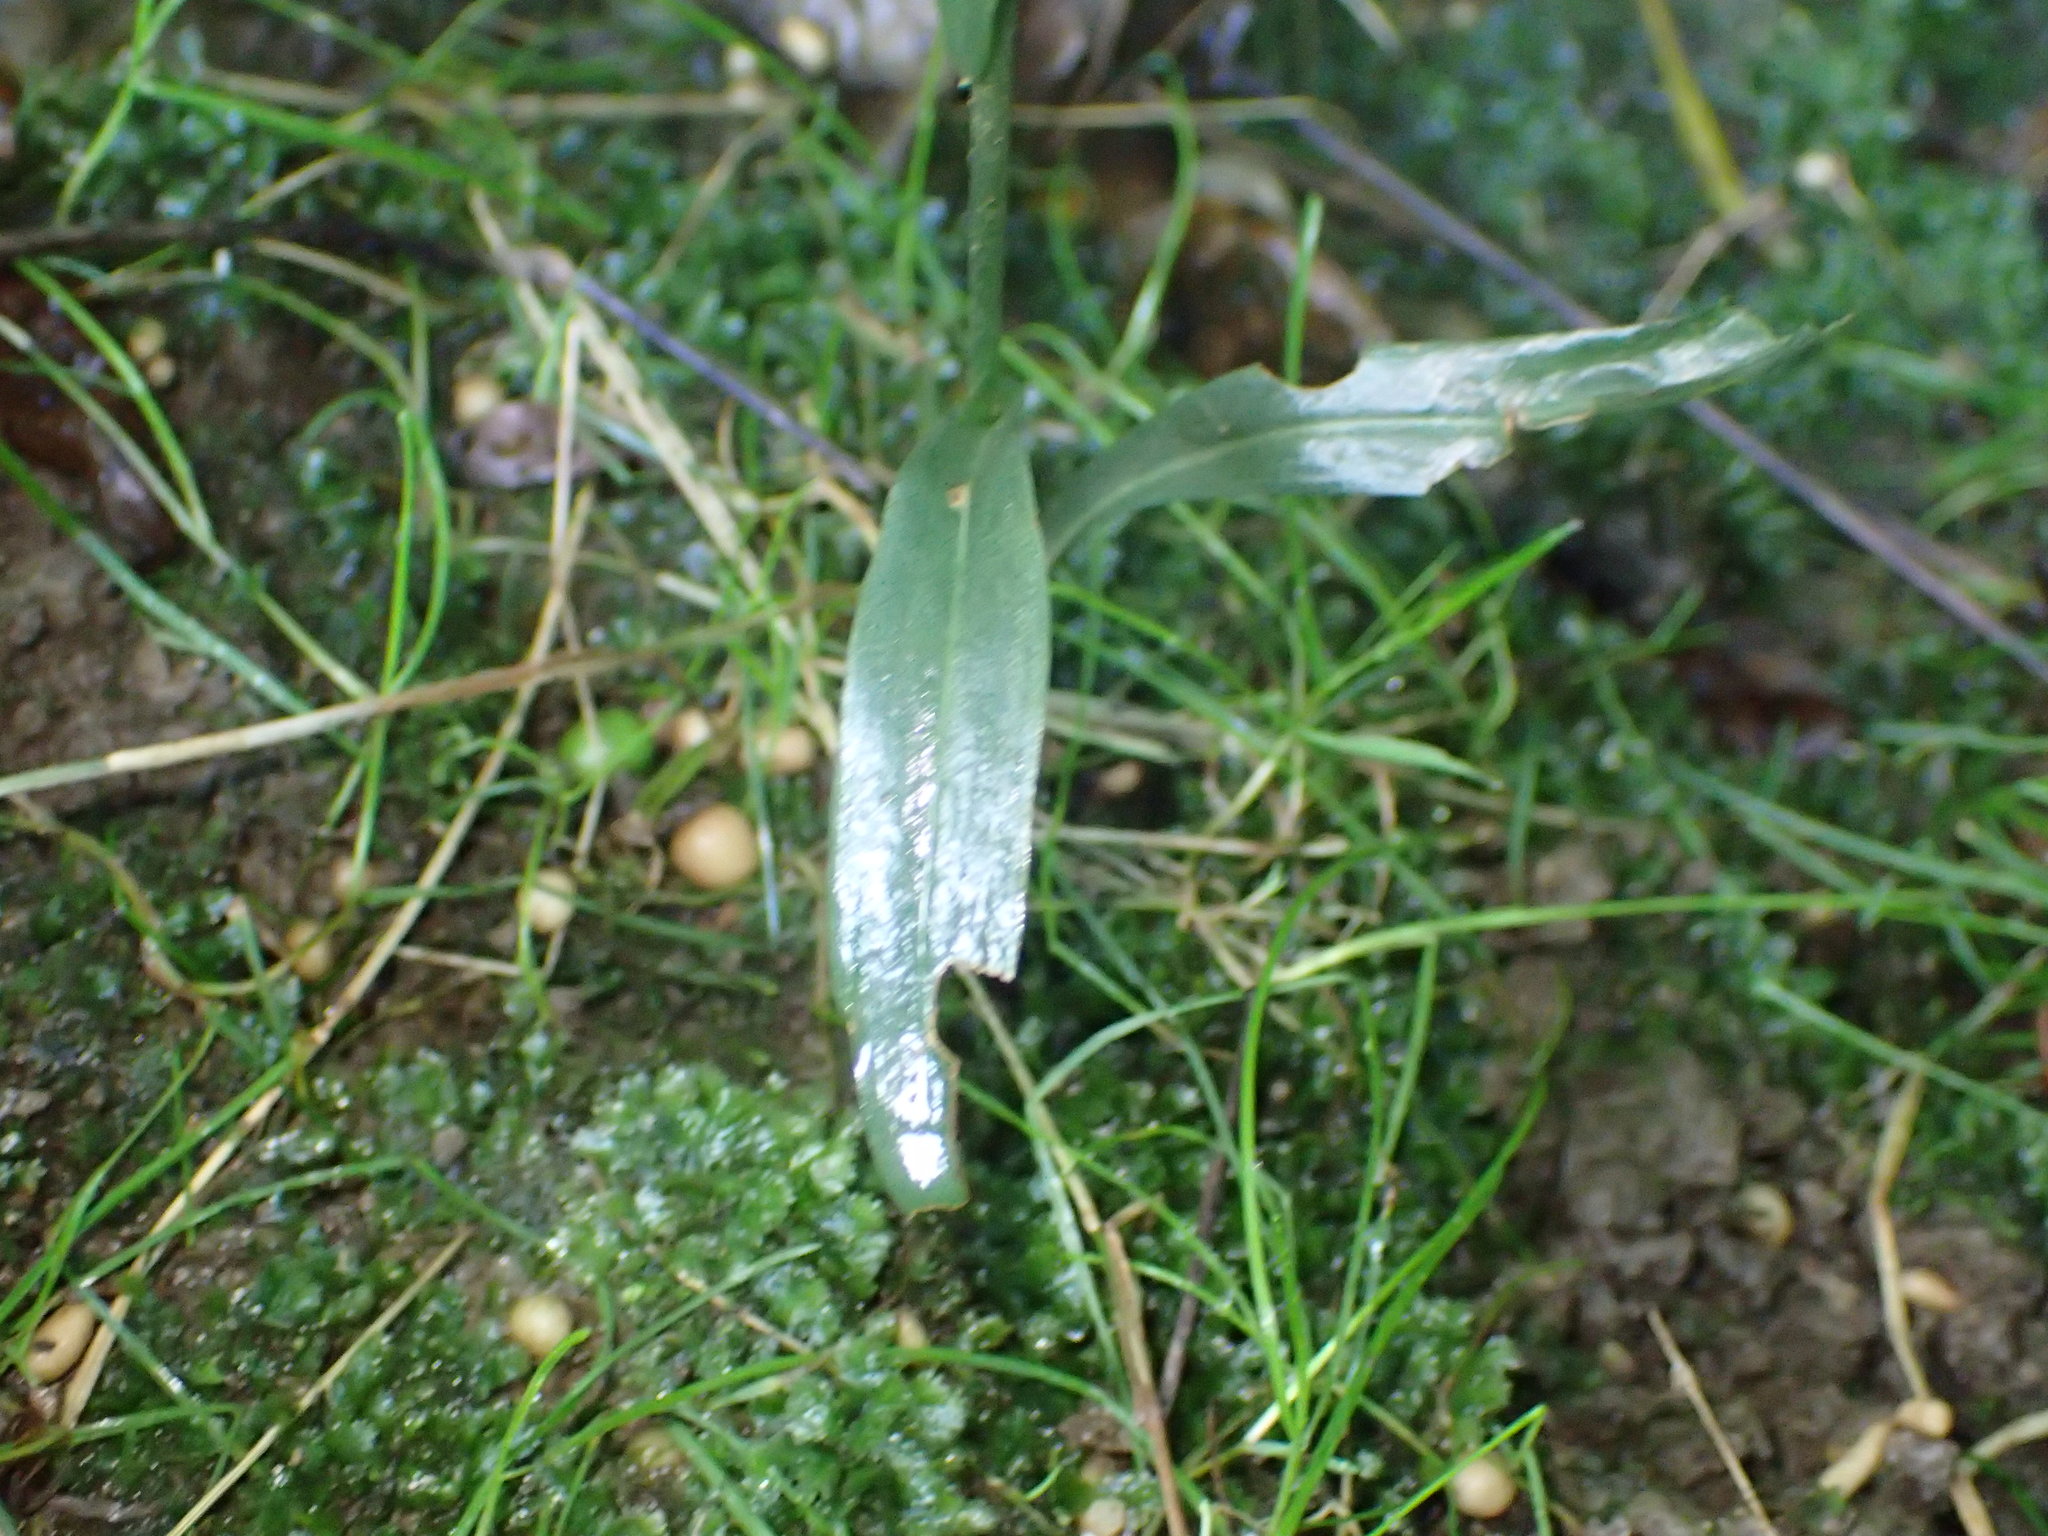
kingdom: Plantae
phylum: Tracheophyta
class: Liliopsida
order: Asparagales
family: Orchidaceae
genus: Spiranthes
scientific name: Spiranthes ovalis
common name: October ladies'-tresses
